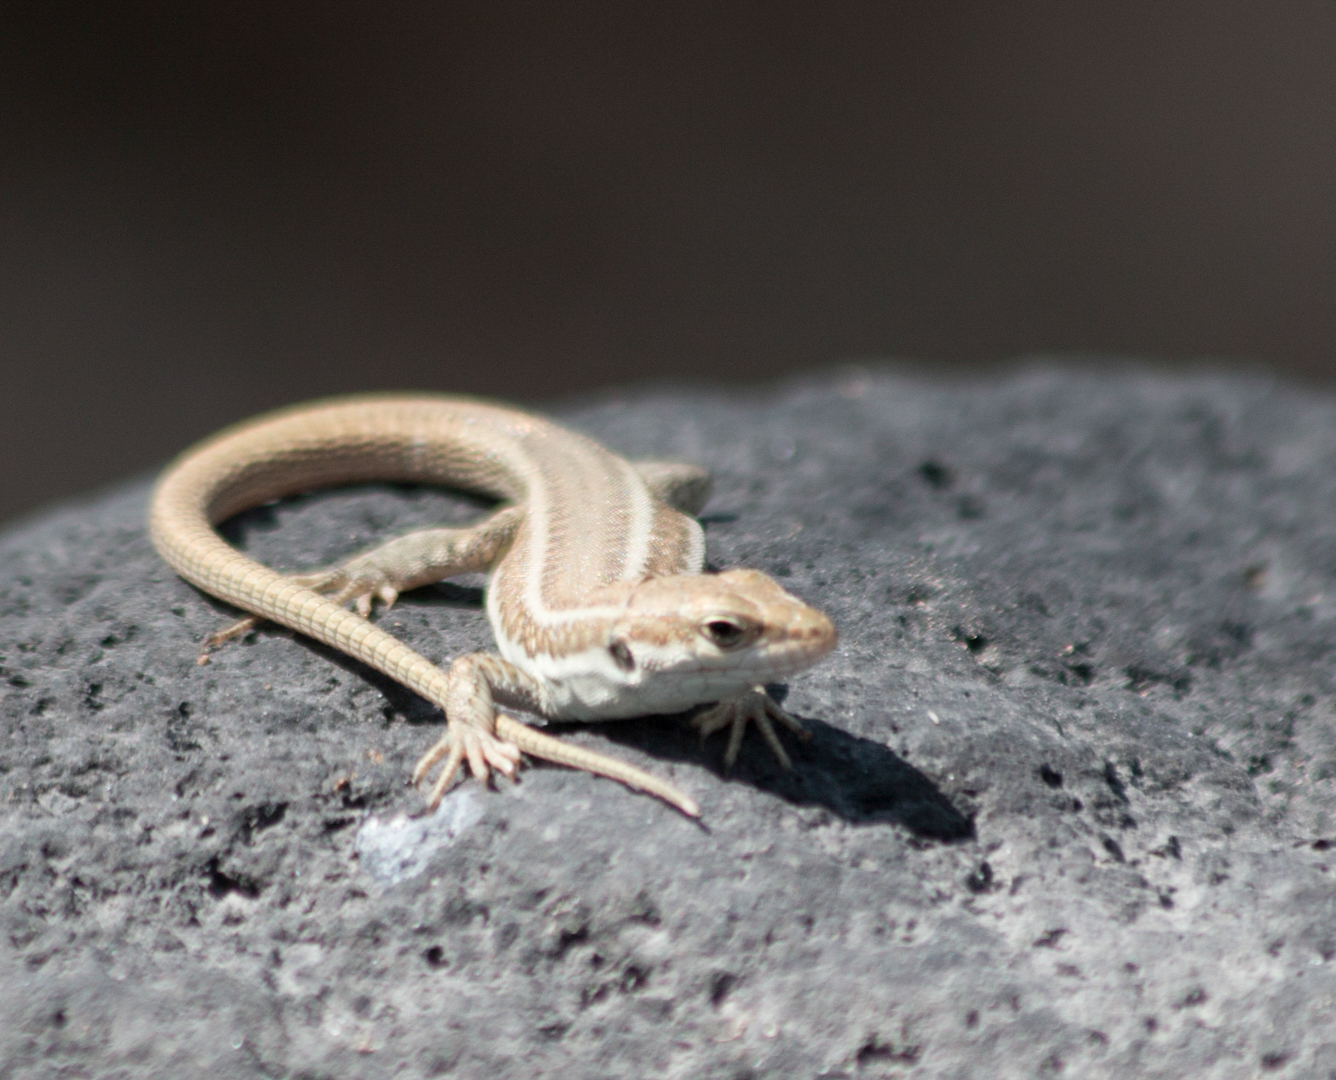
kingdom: Animalia
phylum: Chordata
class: Squamata
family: Lacertidae
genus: Podarcis
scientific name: Podarcis erhardii
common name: Erhard's wall lizard
